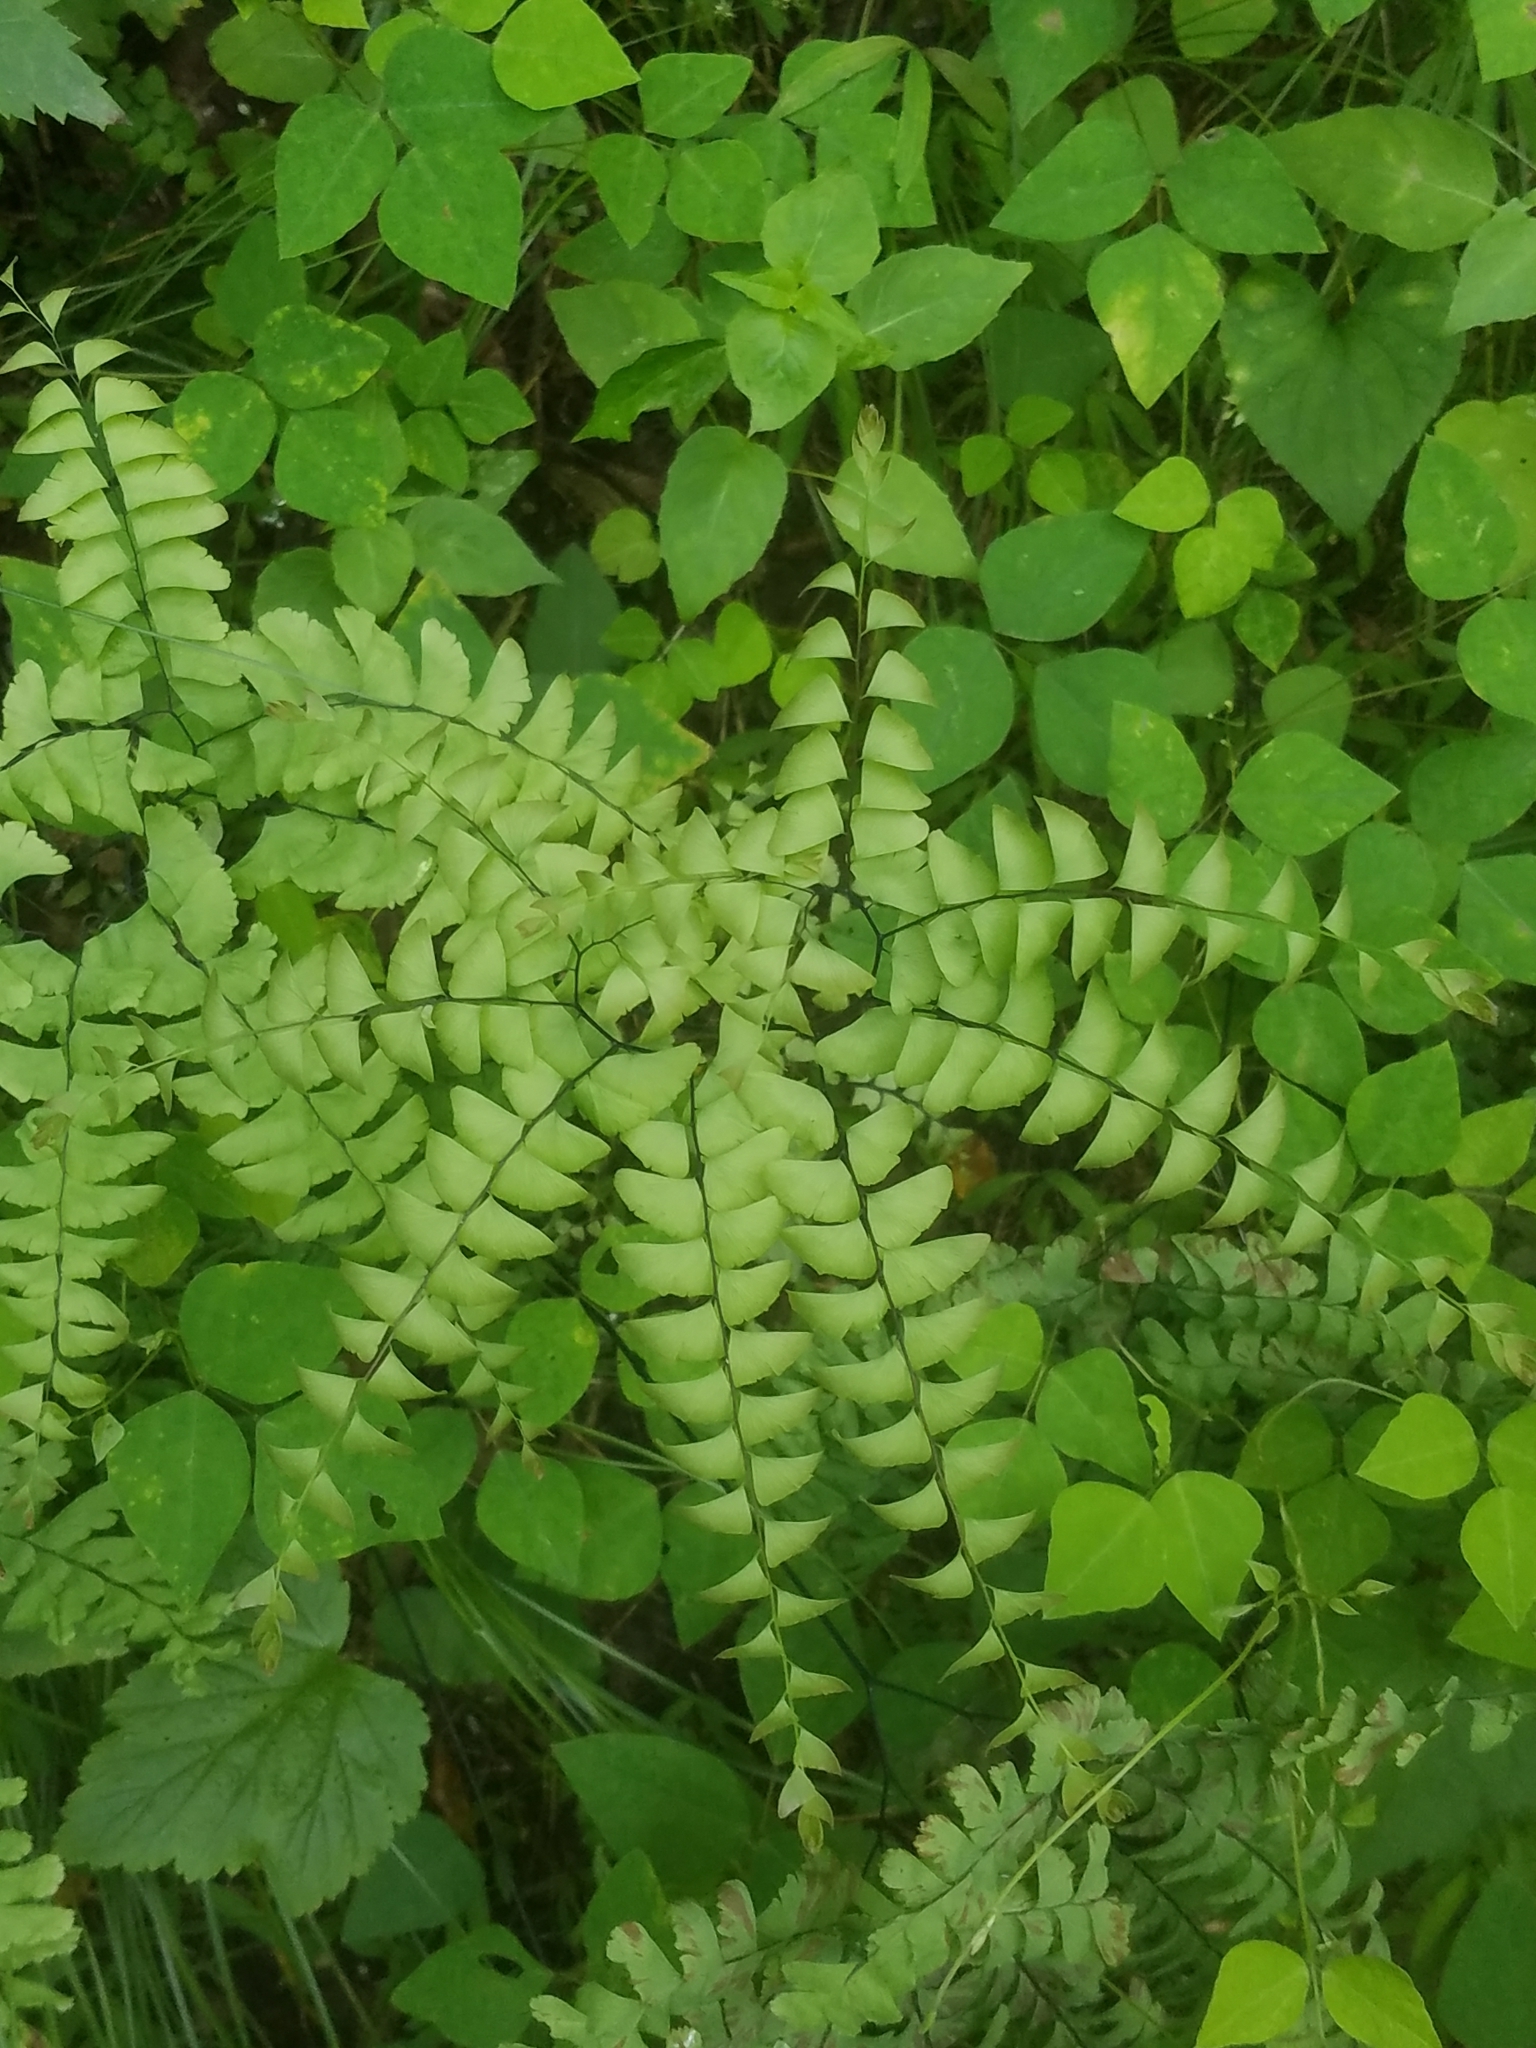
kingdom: Plantae
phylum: Tracheophyta
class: Polypodiopsida
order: Polypodiales
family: Pteridaceae
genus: Adiantum
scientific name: Adiantum pedatum
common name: Five-finger fern
